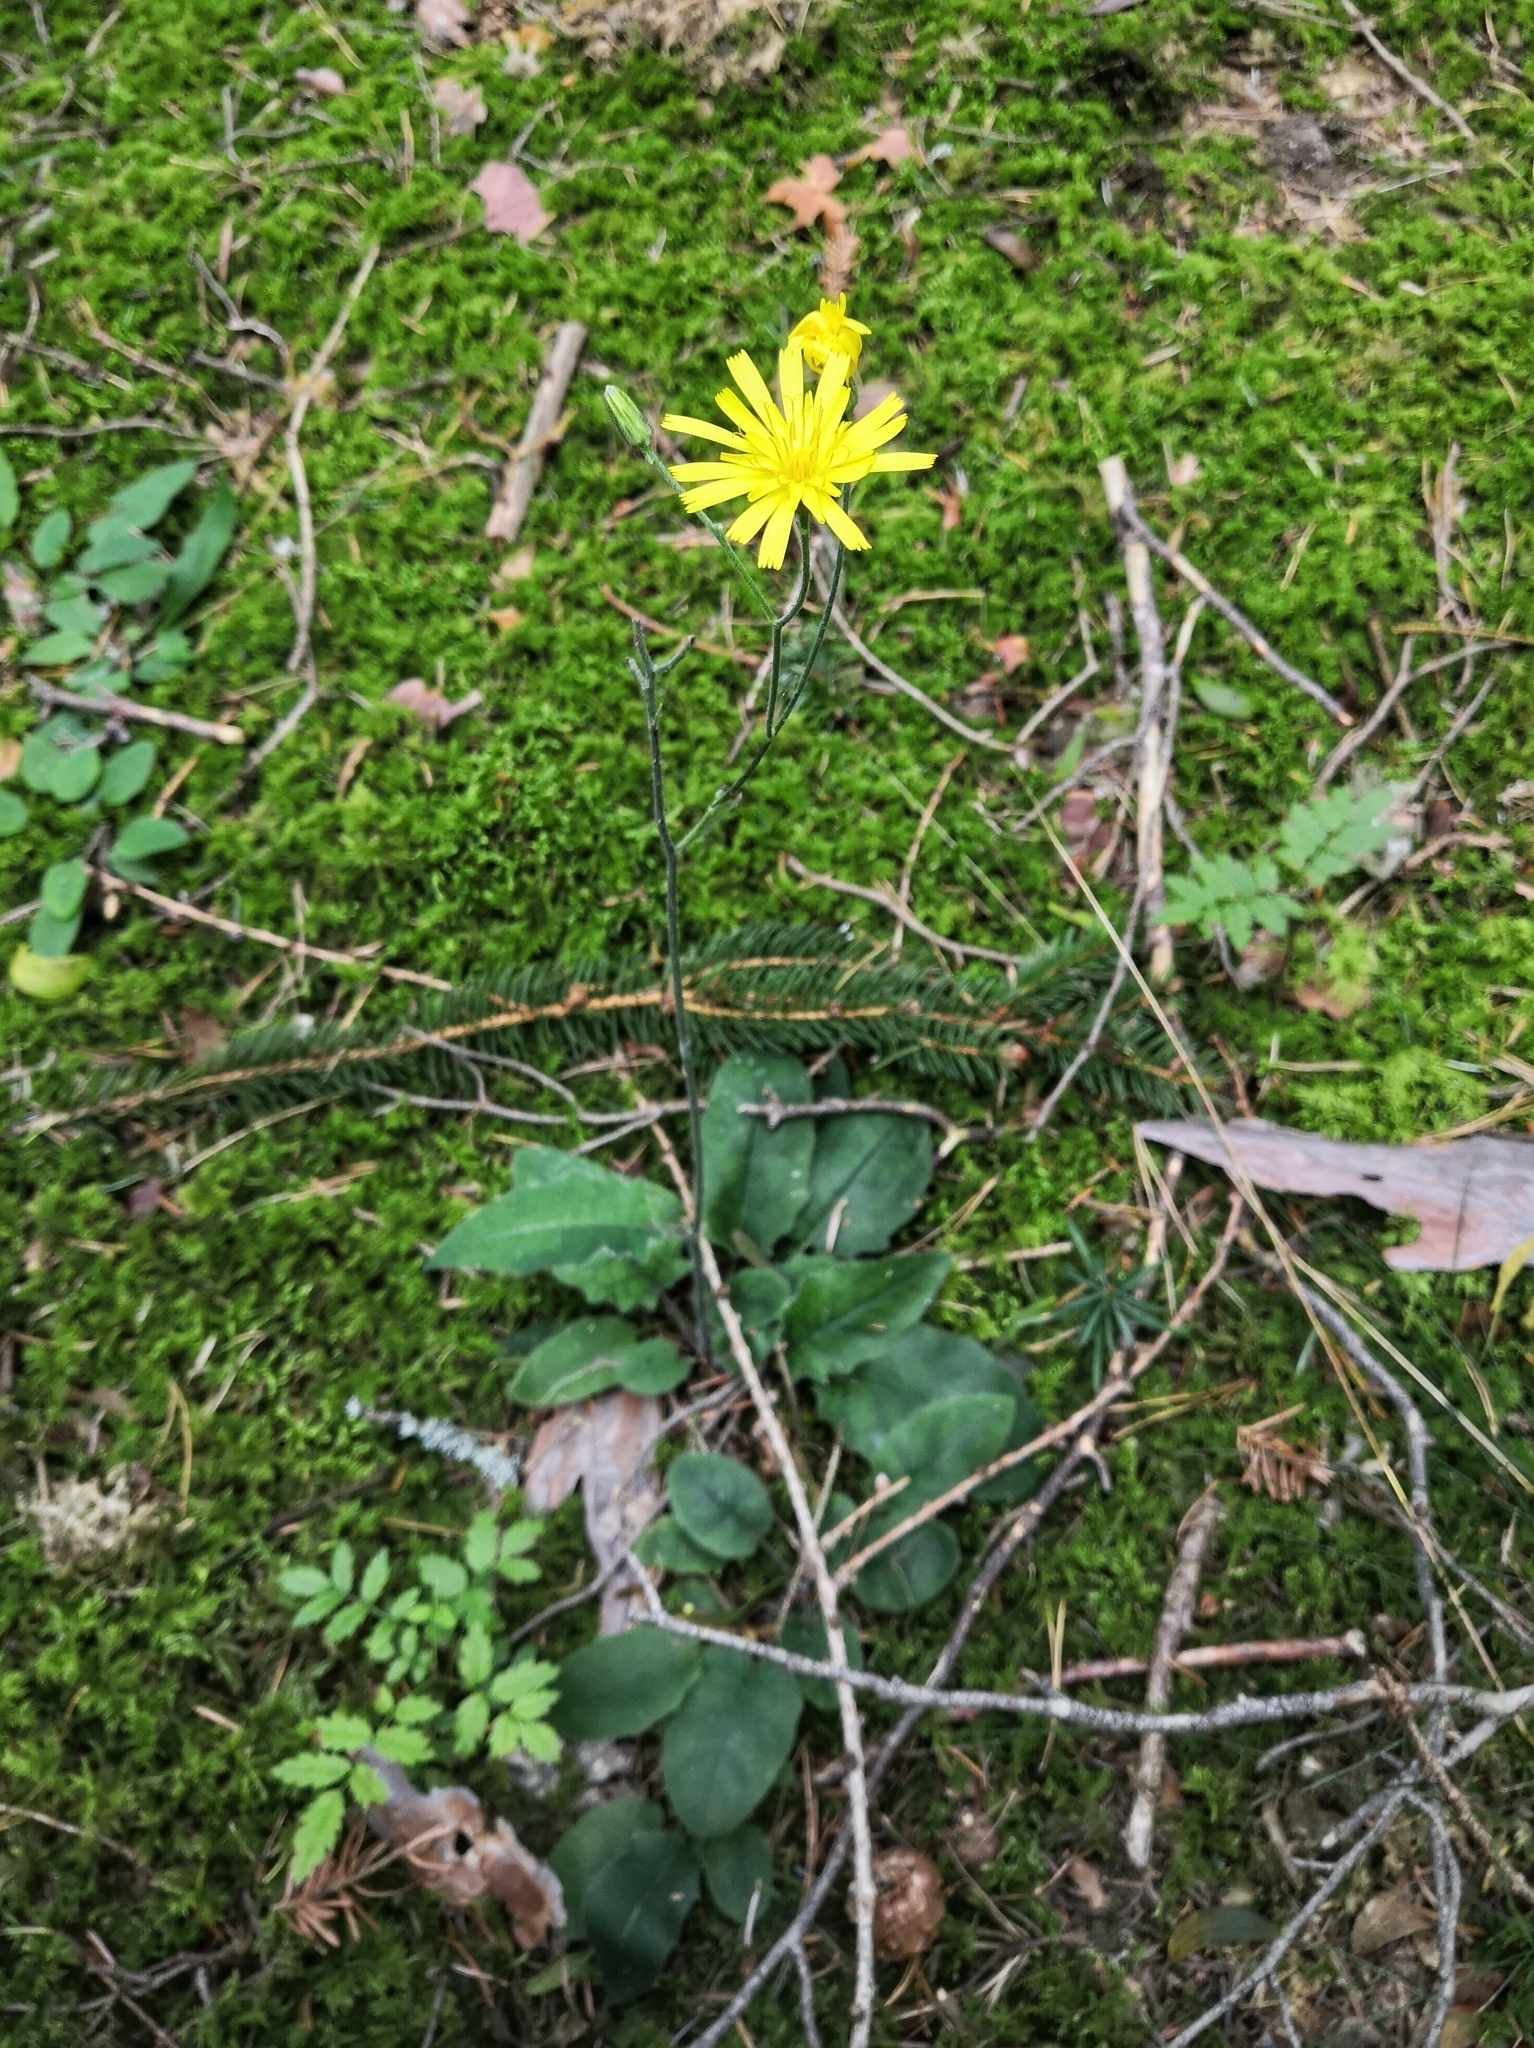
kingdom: Plantae
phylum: Tracheophyta
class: Magnoliopsida
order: Asterales
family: Asteraceae
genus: Hieracium
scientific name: Hieracium murorum
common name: Wall hawkweed
